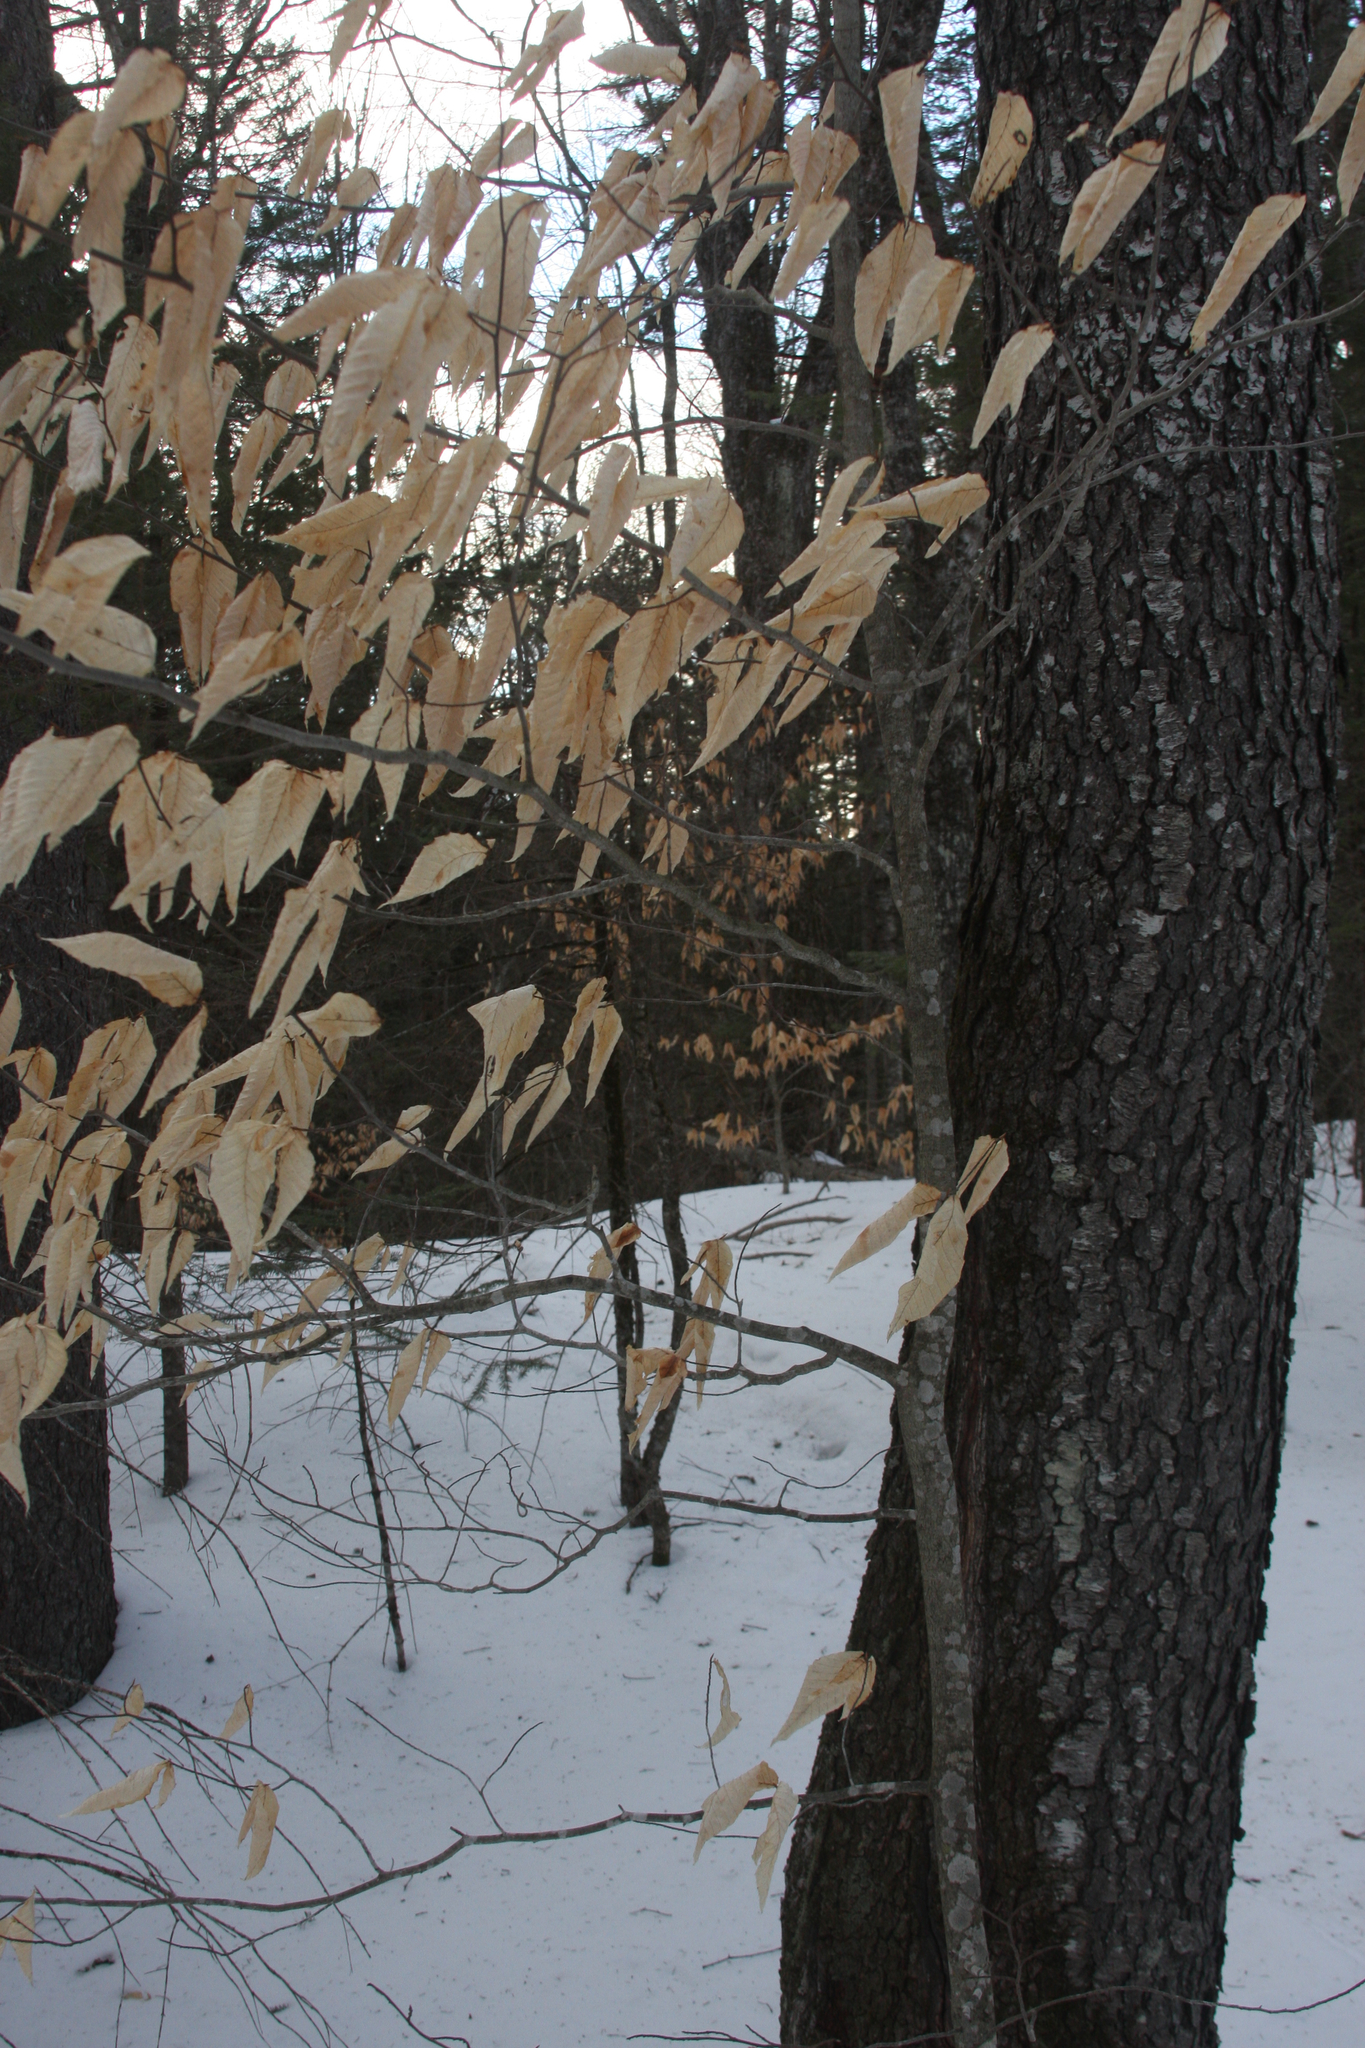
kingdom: Plantae
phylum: Tracheophyta
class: Magnoliopsida
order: Fagales
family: Fagaceae
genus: Fagus
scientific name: Fagus grandifolia
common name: American beech
